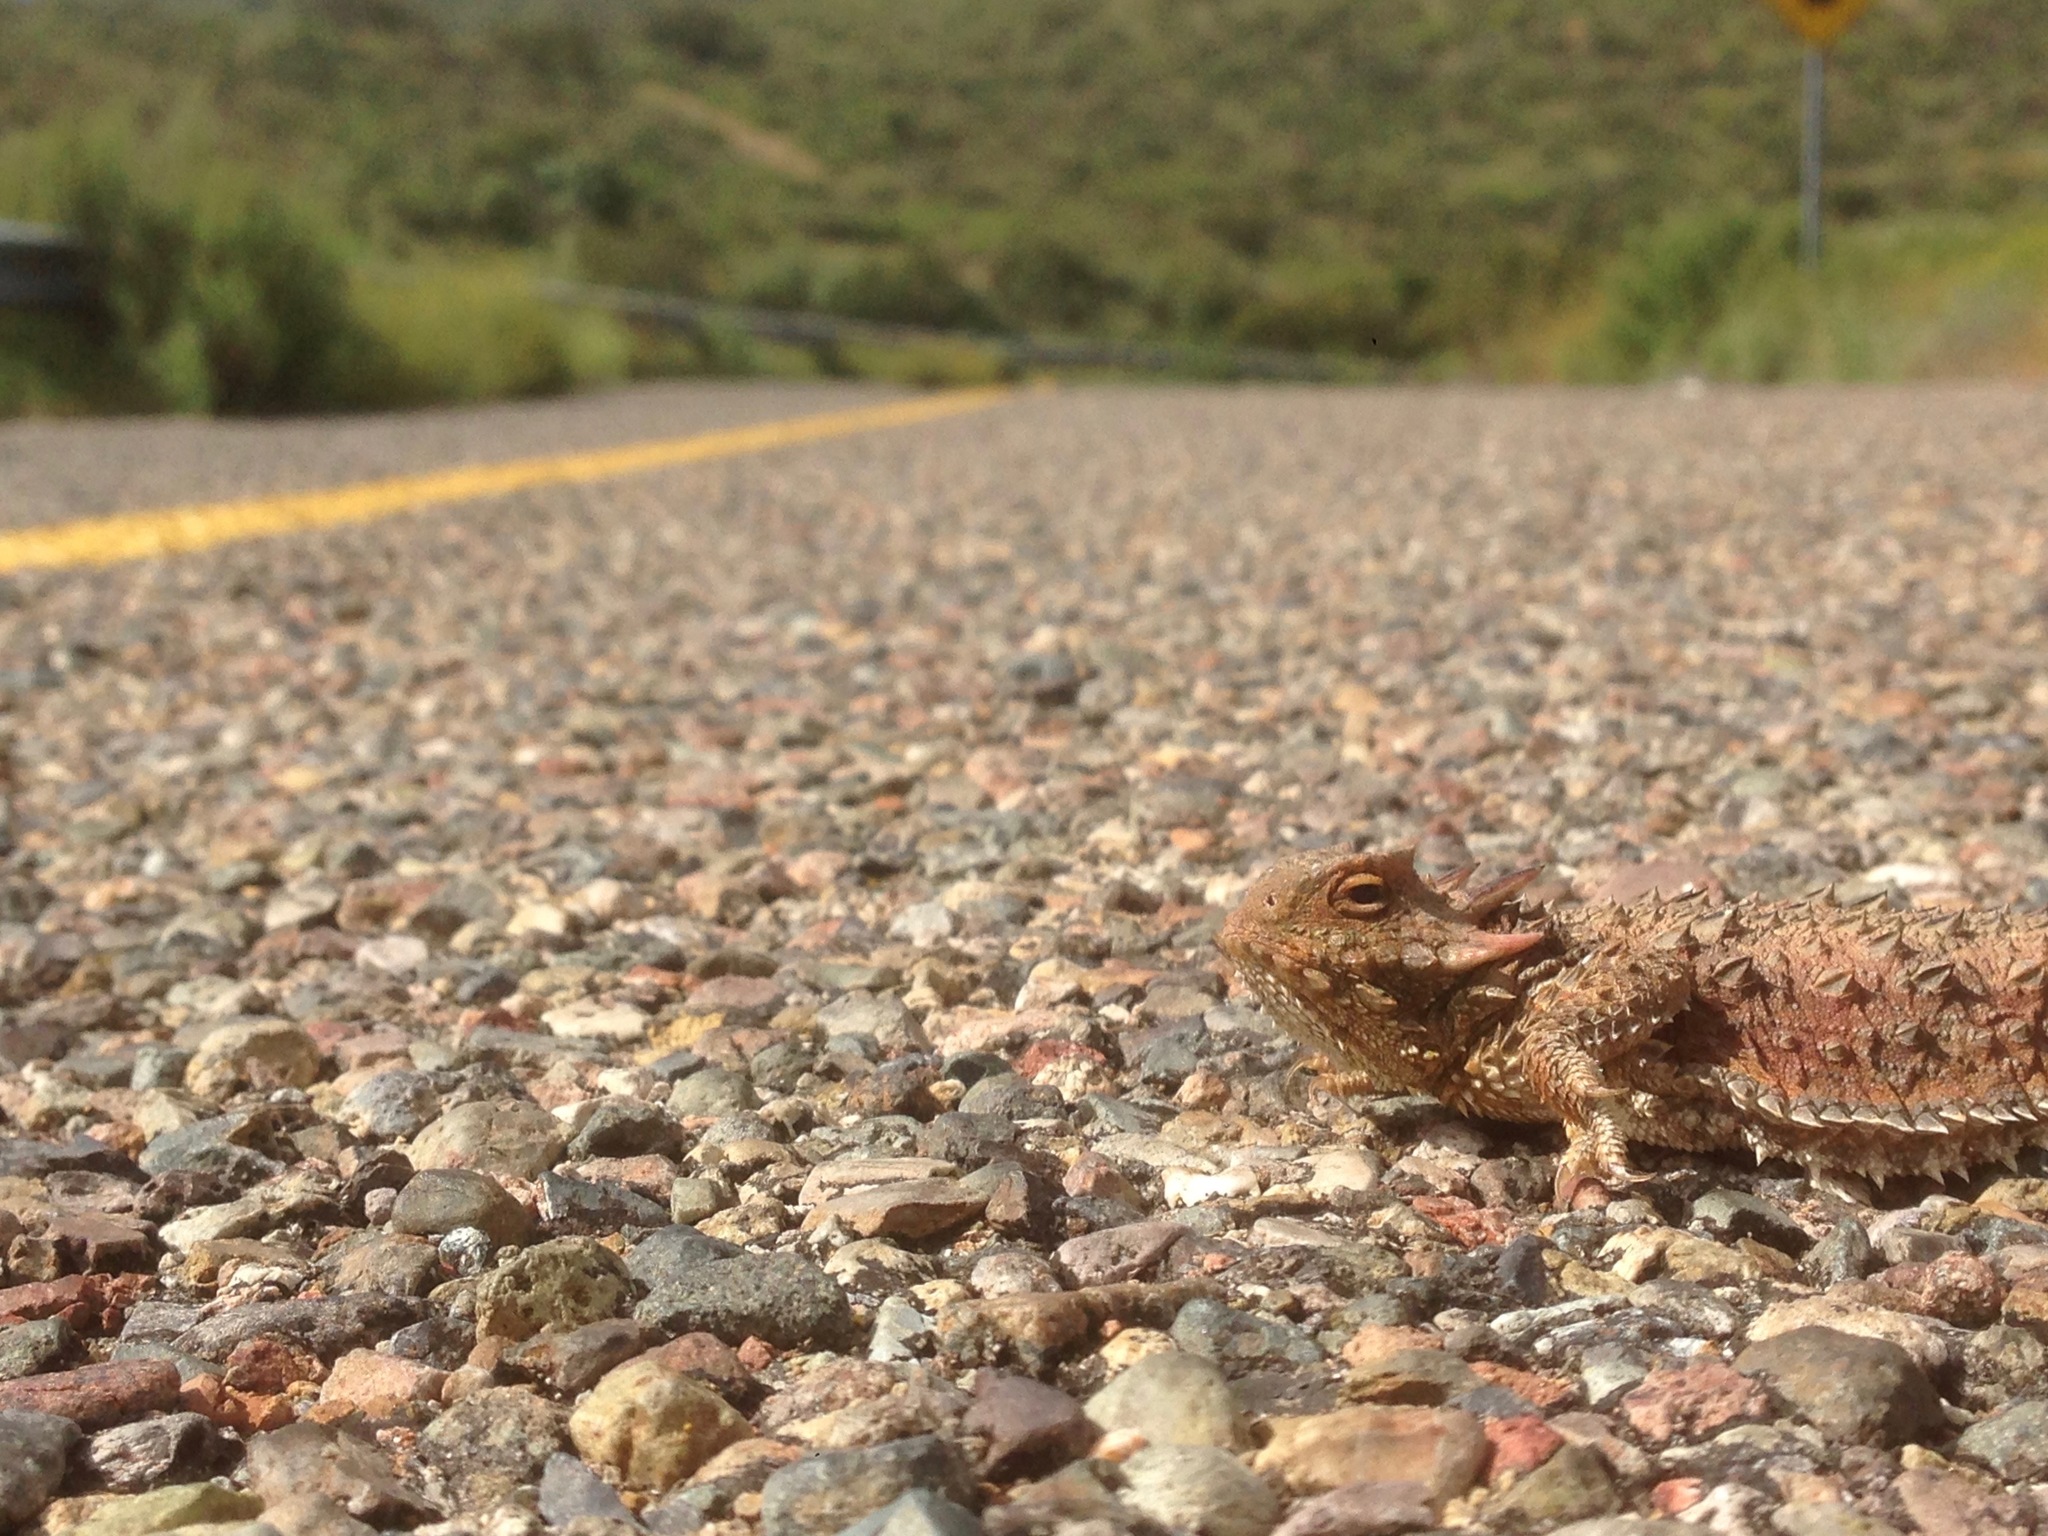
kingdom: Animalia
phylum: Chordata
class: Squamata
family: Phrynosomatidae
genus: Phrynosoma
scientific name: Phrynosoma blainvillii
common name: San diego horned lizard
